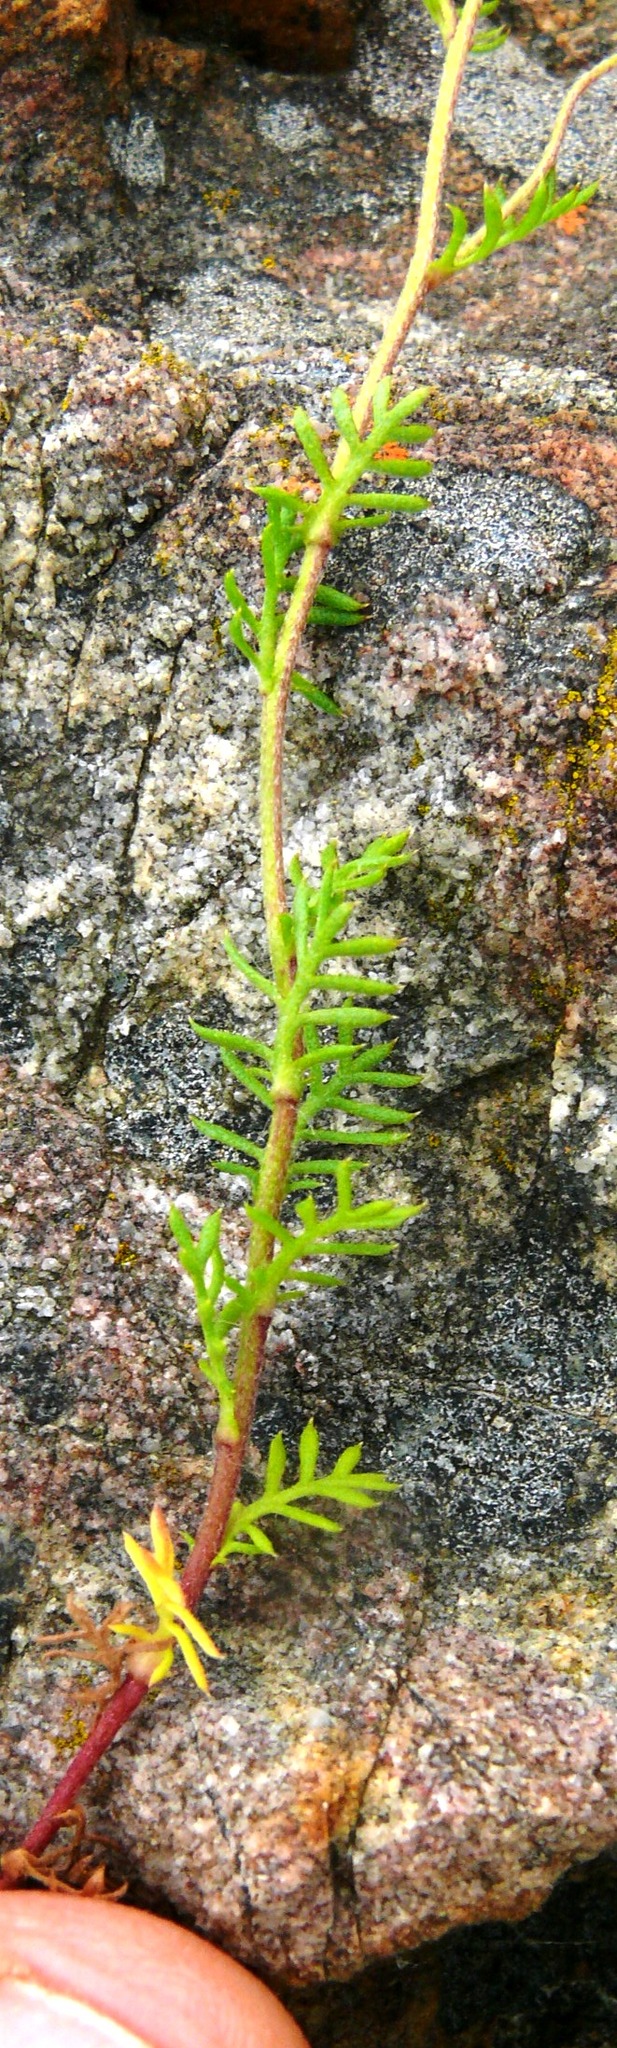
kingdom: Plantae
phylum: Tracheophyta
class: Magnoliopsida
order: Asterales
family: Asteraceae
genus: Hippia
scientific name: Hippia frutescens
